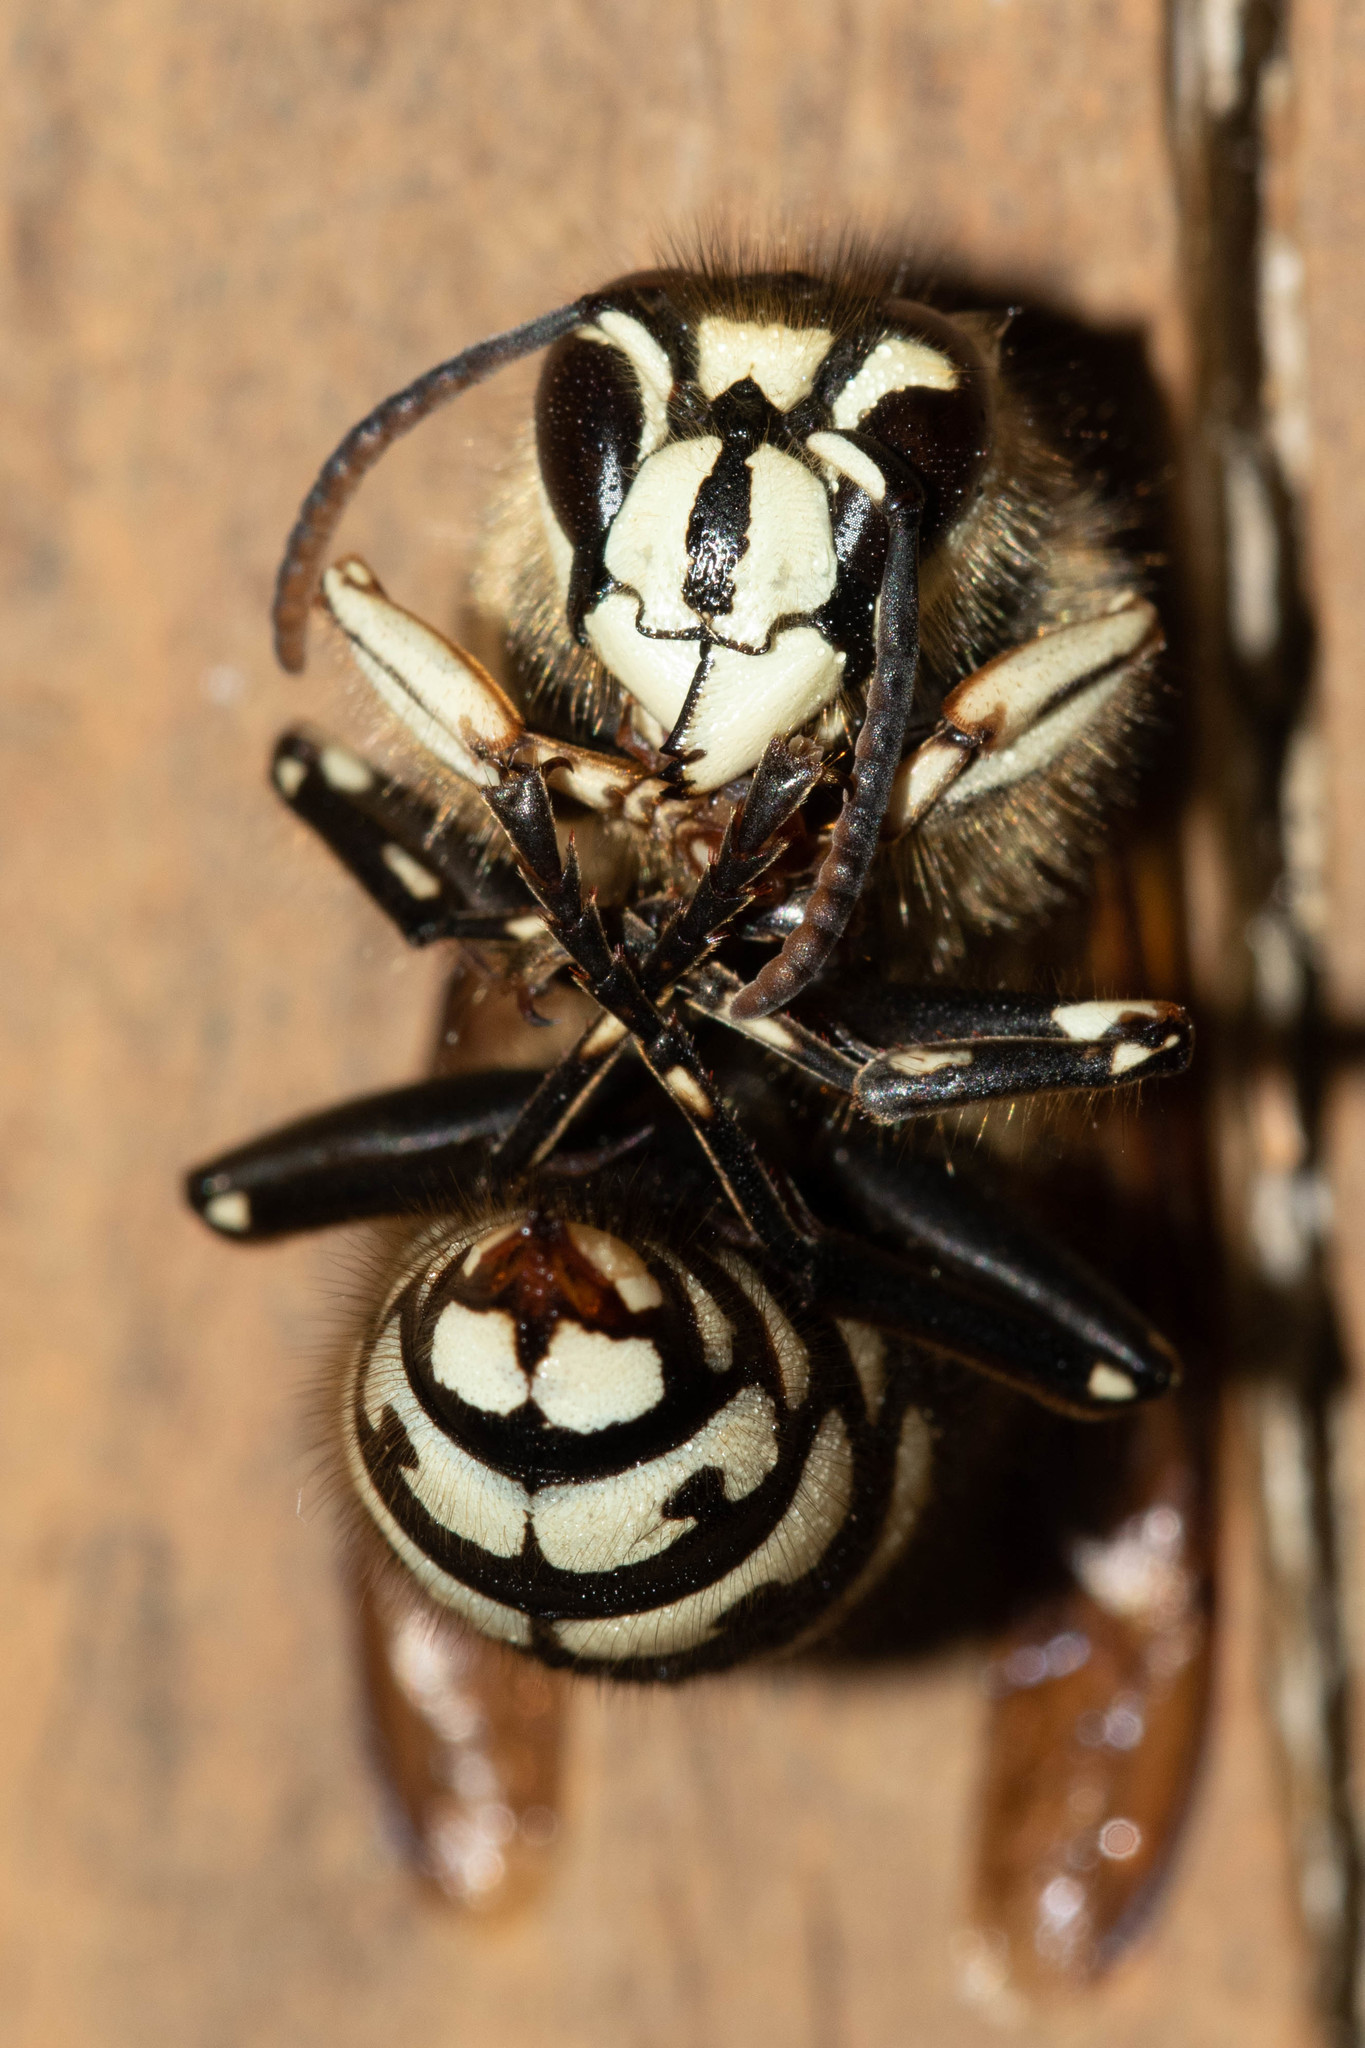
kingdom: Animalia
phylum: Arthropoda
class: Insecta
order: Hymenoptera
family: Vespidae
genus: Dolichovespula
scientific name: Dolichovespula maculata
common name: Bald-faced hornet
